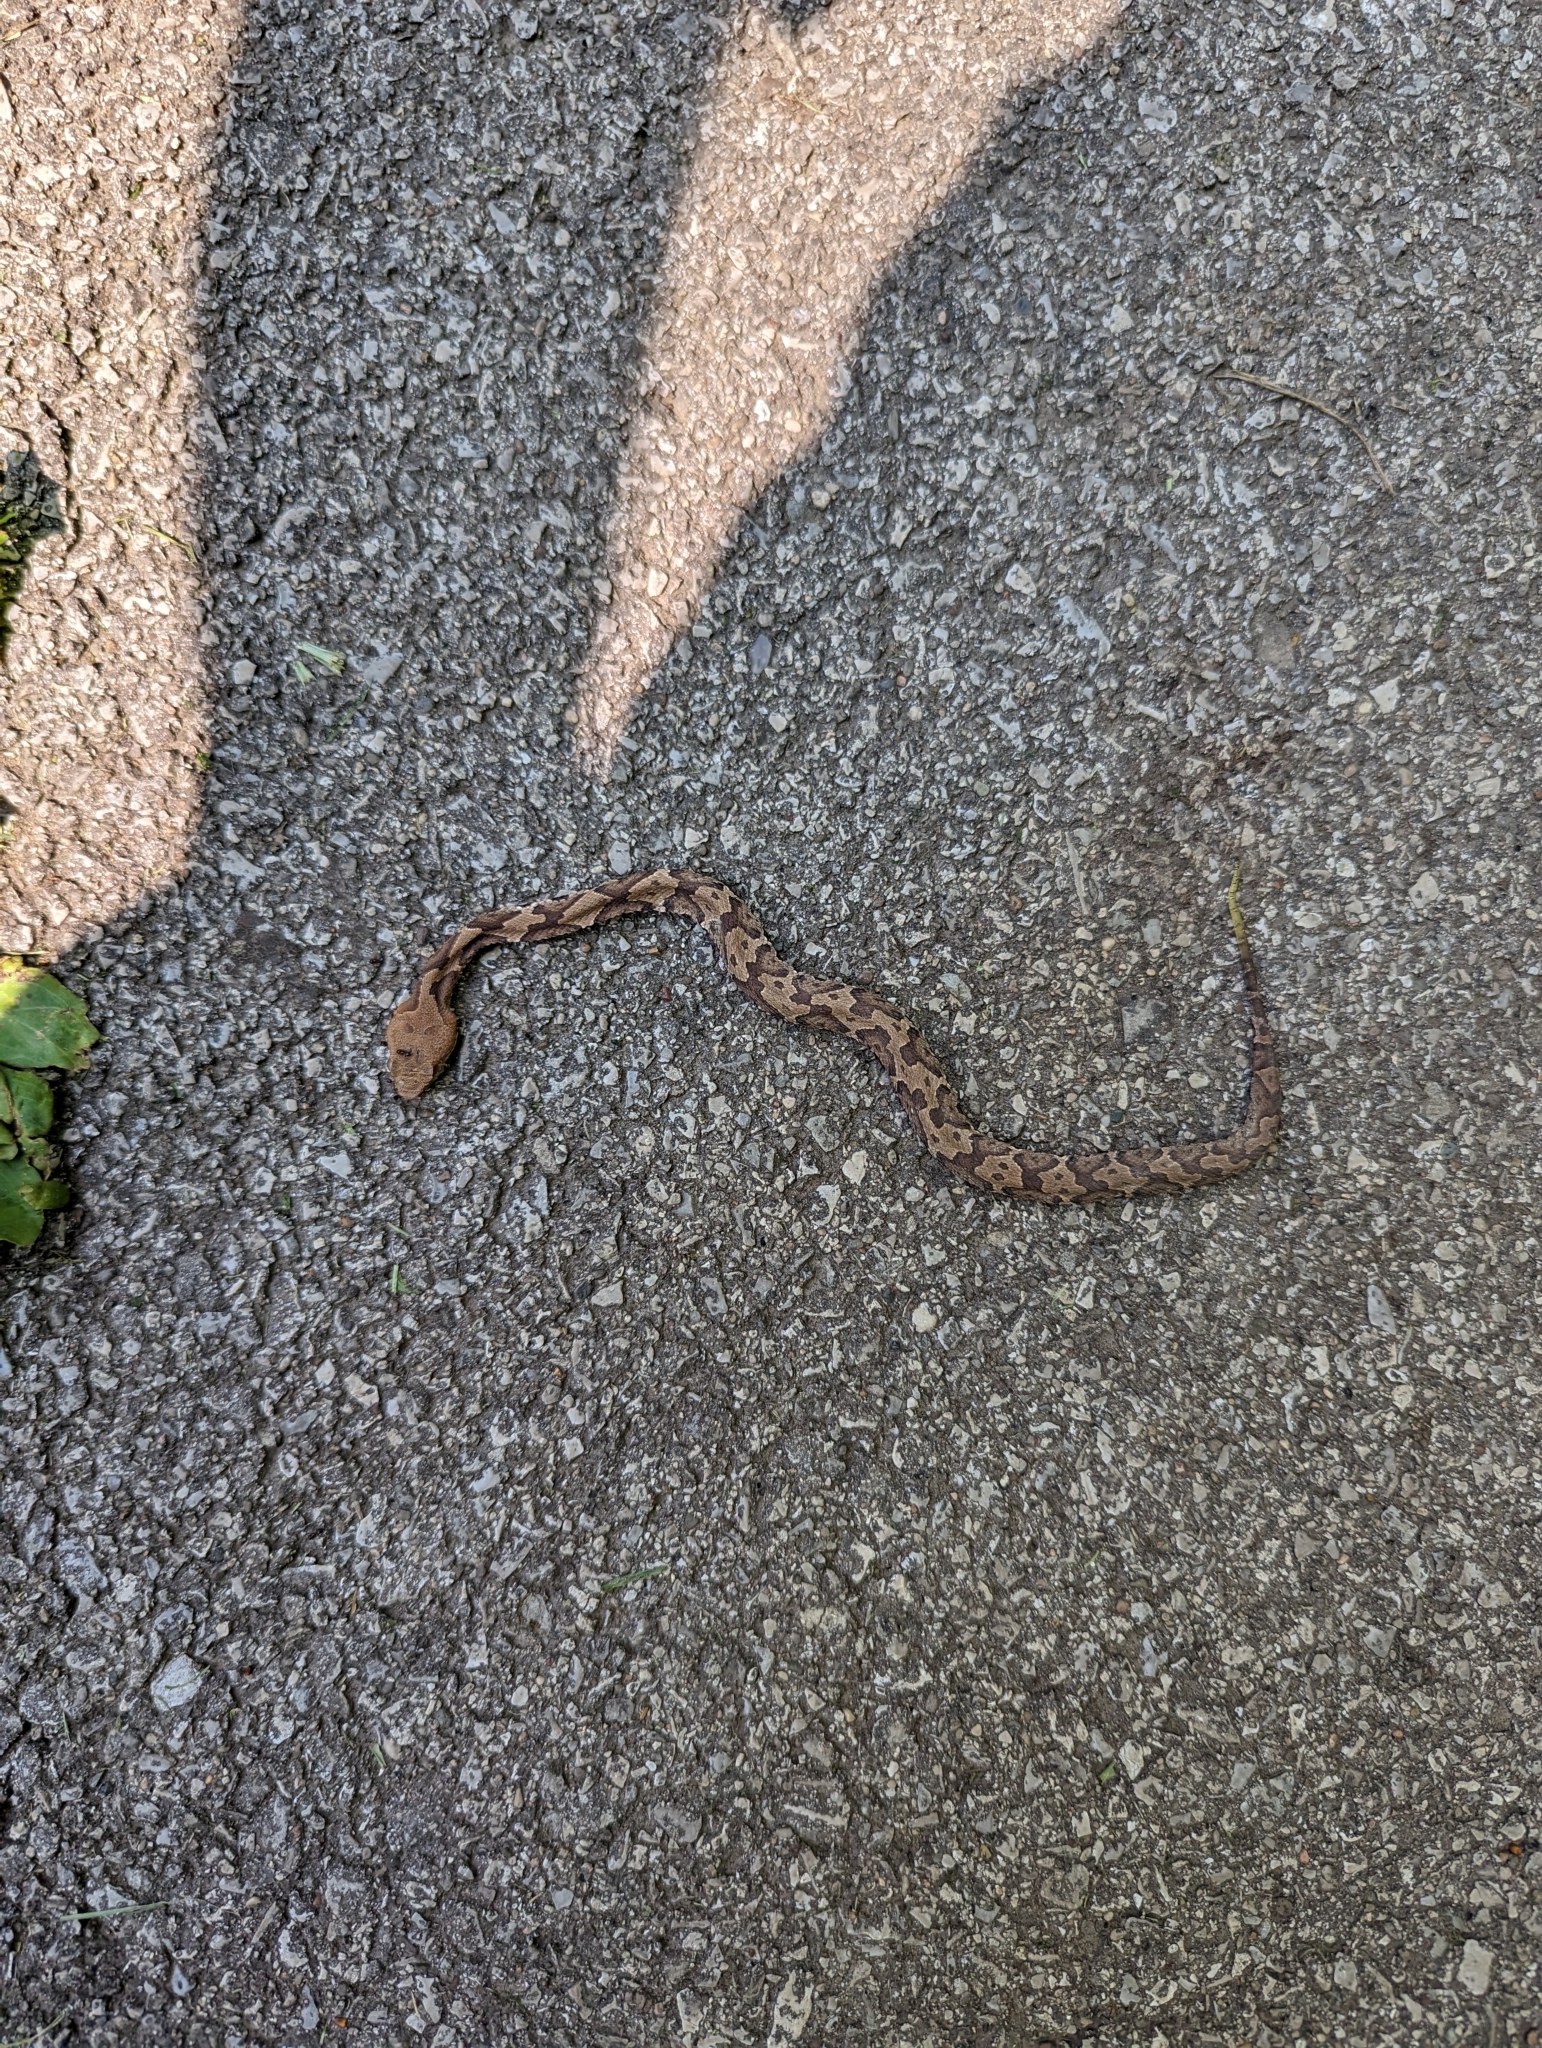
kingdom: Animalia
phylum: Chordata
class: Squamata
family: Viperidae
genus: Agkistrodon
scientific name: Agkistrodon contortrix
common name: Northern copperhead
